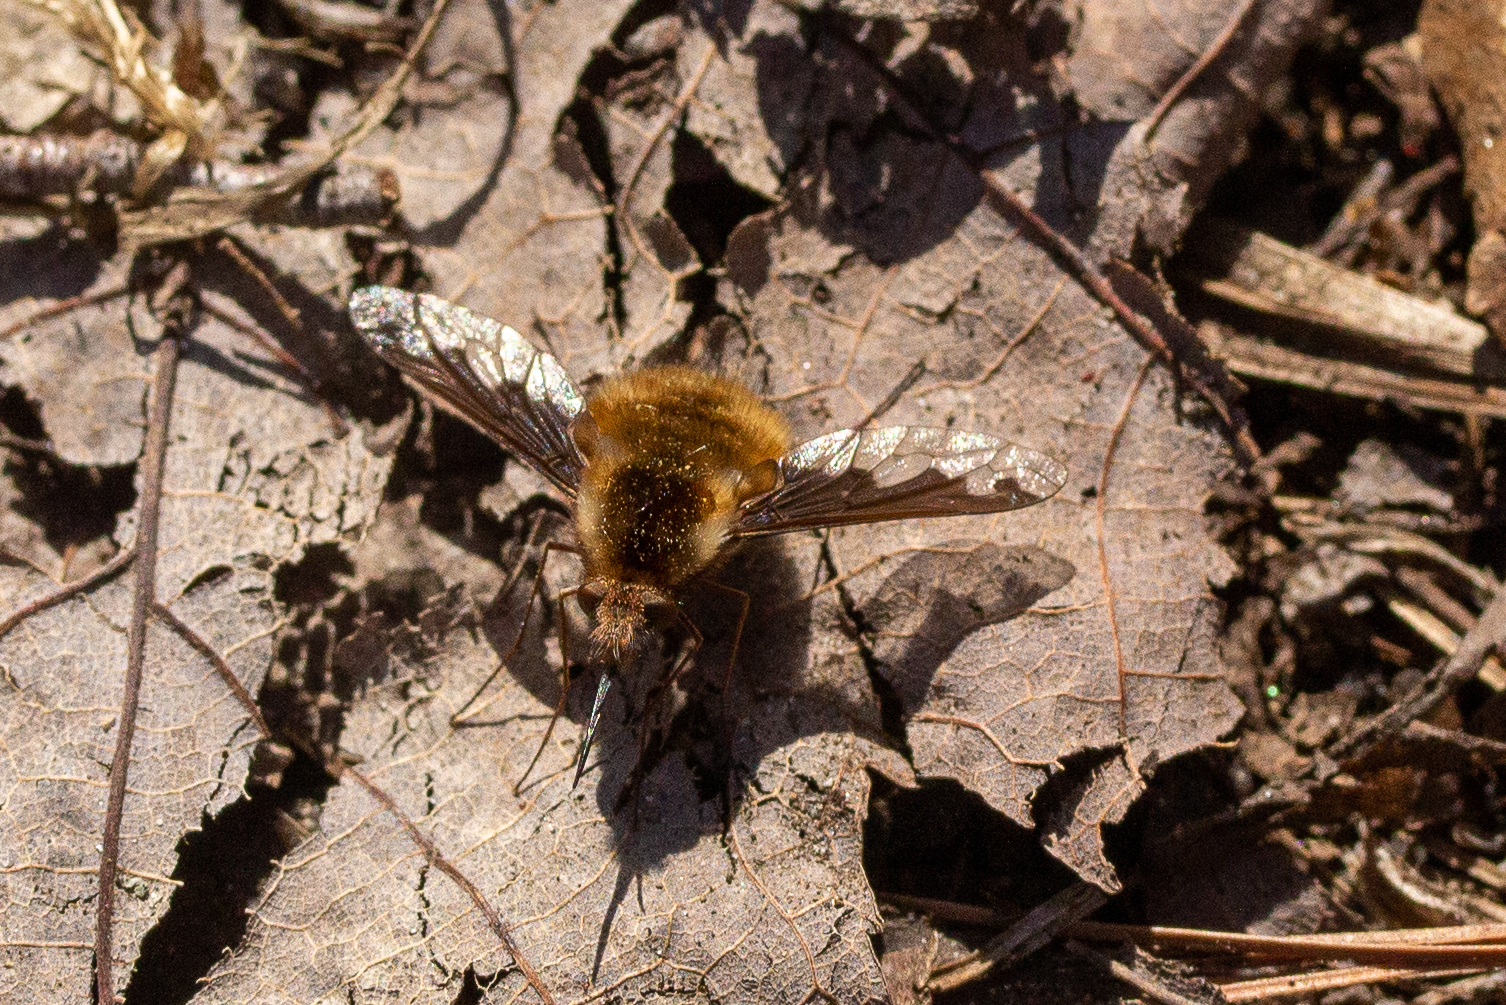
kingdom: Animalia
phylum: Arthropoda
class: Insecta
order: Diptera
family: Bombyliidae
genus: Bombylius
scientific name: Bombylius major
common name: Bee fly
